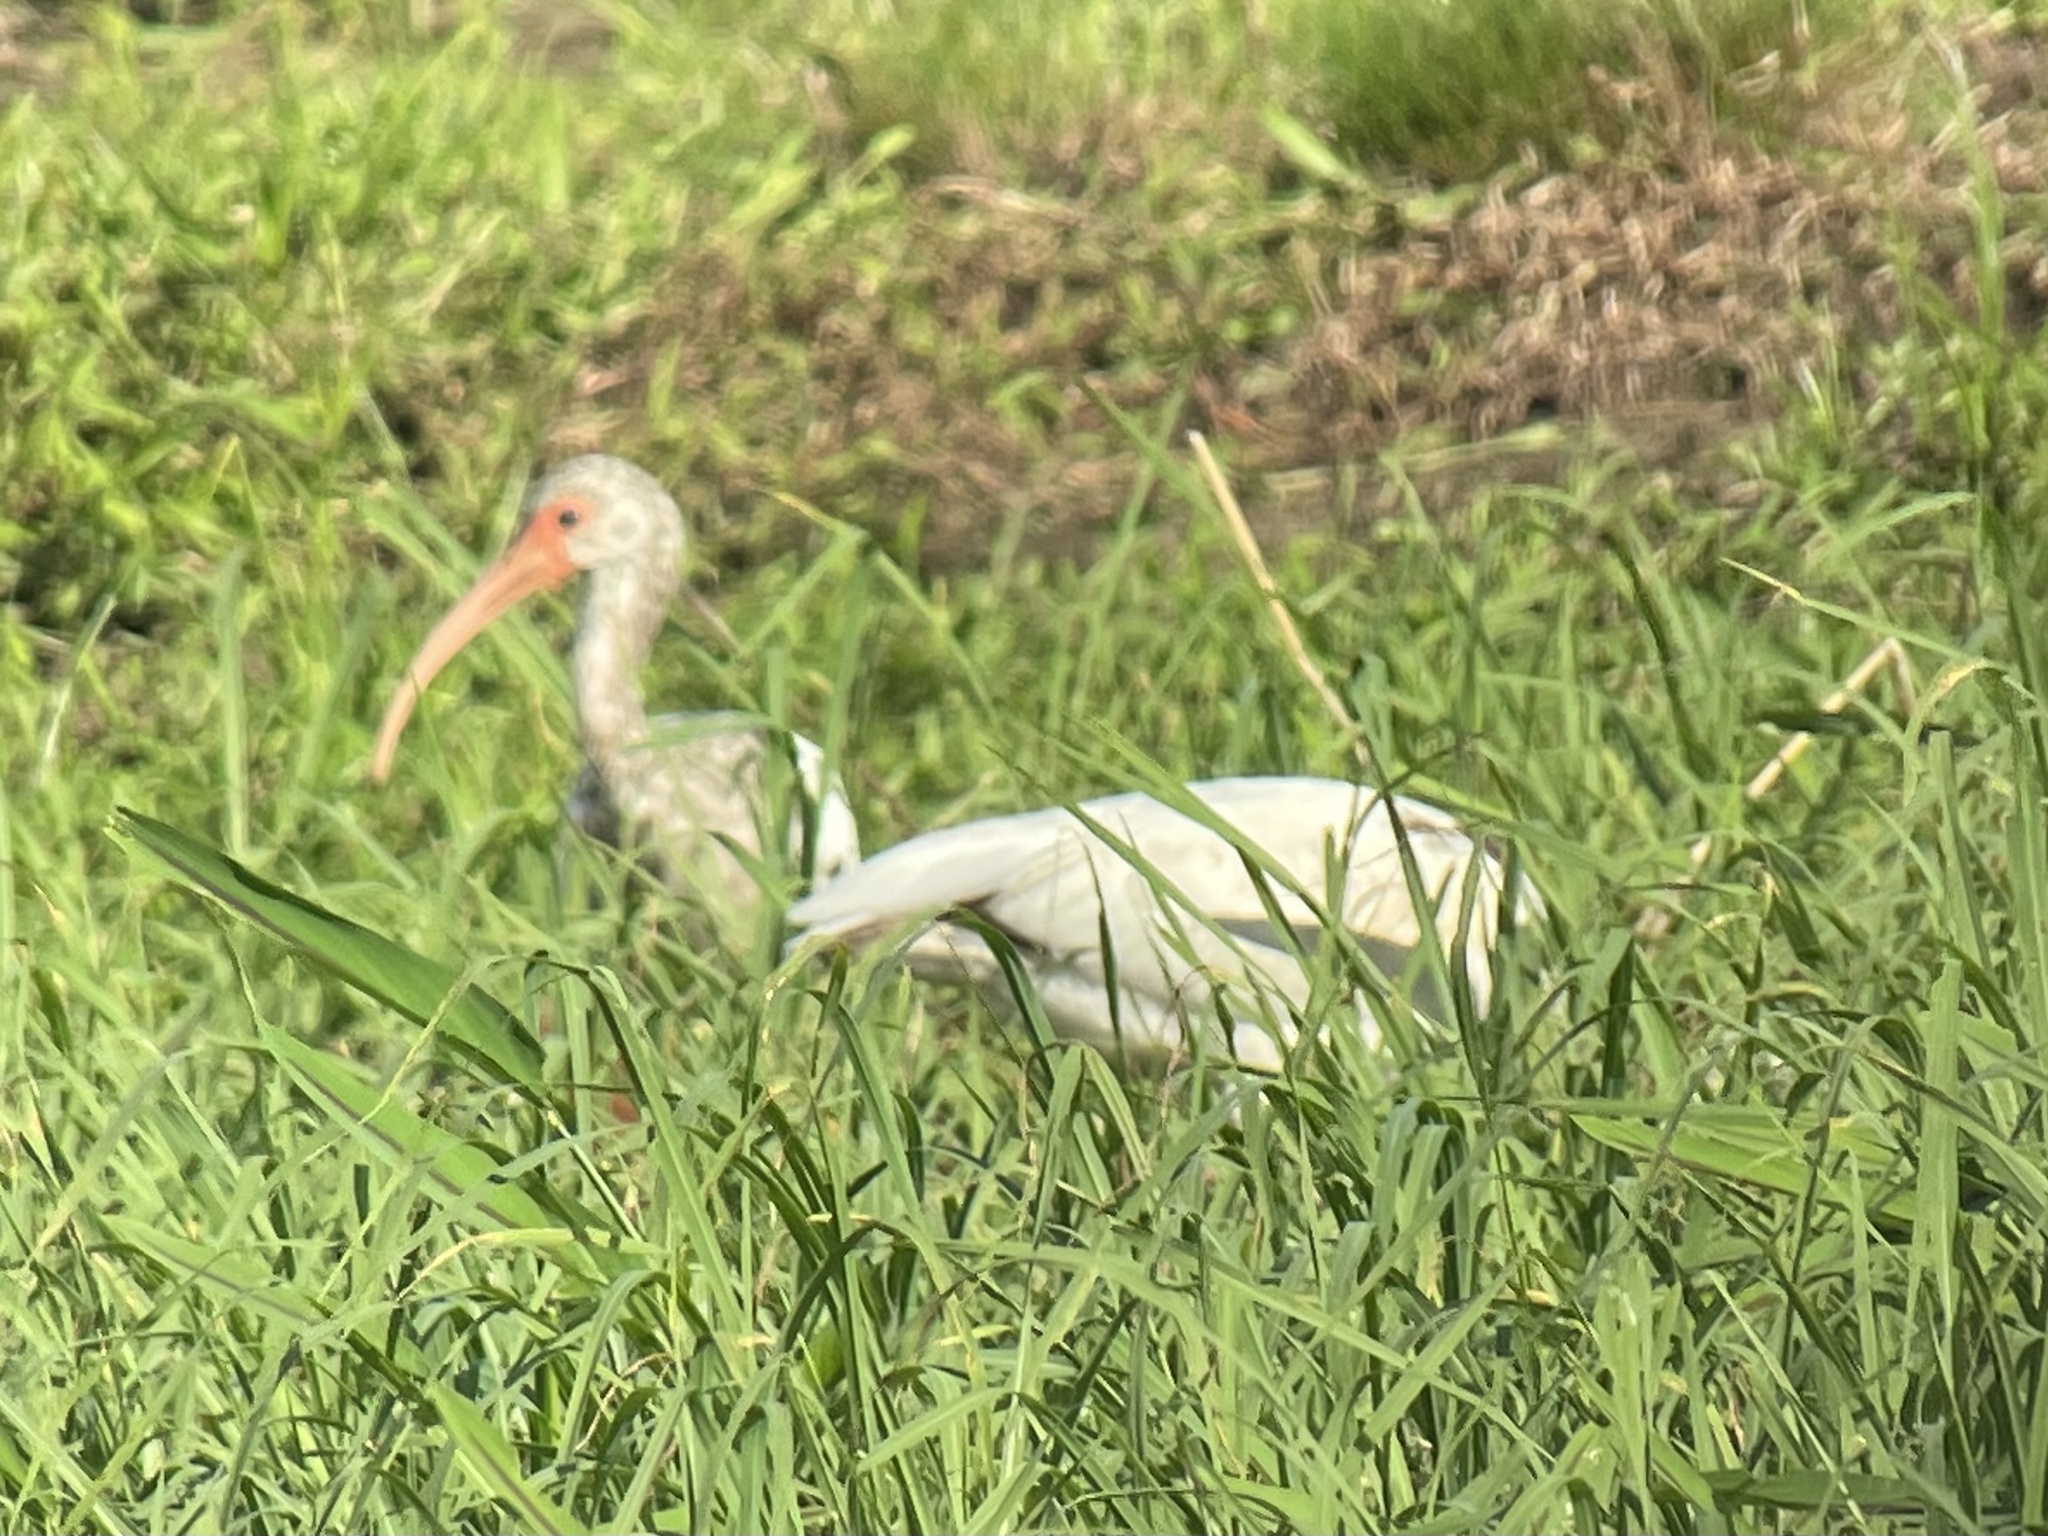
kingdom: Animalia
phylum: Chordata
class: Aves
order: Pelecaniformes
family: Threskiornithidae
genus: Eudocimus
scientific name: Eudocimus albus
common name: White ibis
